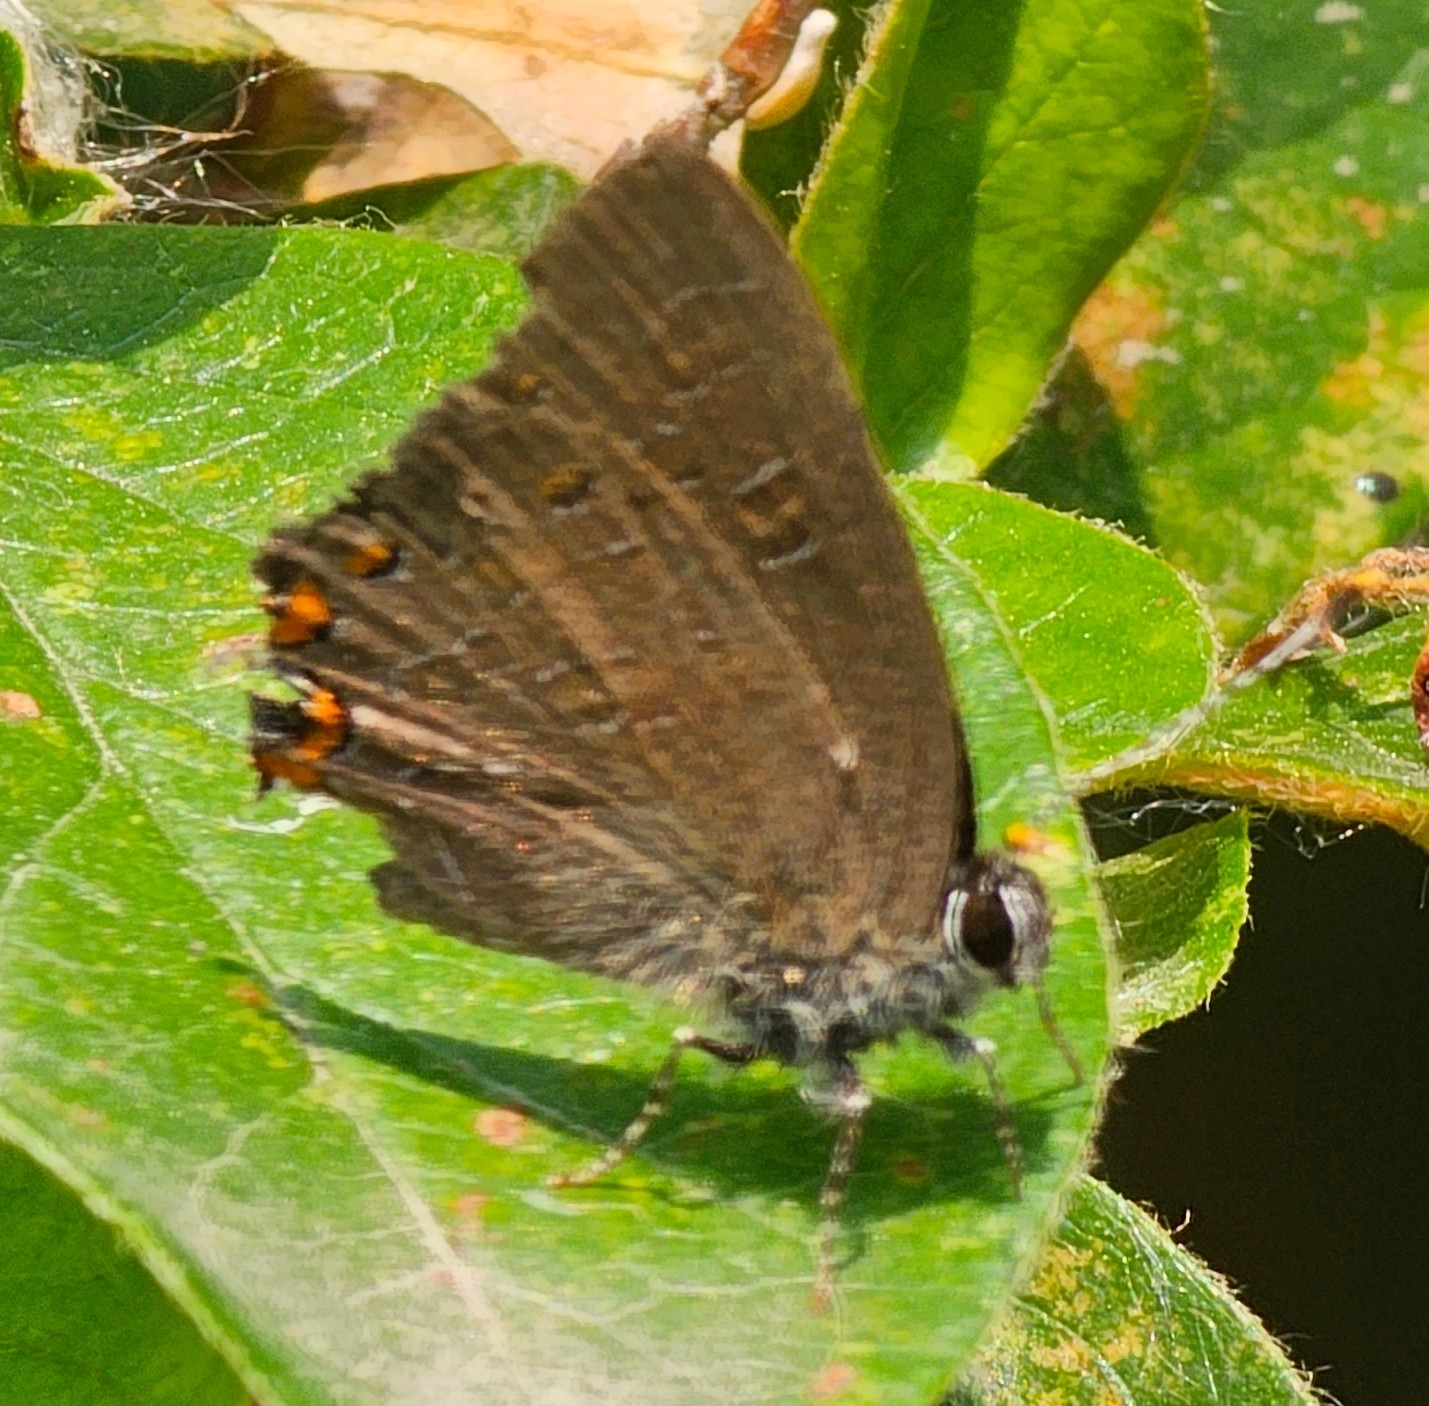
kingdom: Animalia
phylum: Arthropoda
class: Insecta
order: Lepidoptera
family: Lycaenidae
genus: Satyrium
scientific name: Satyrium liparops
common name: Striped hairstreak
